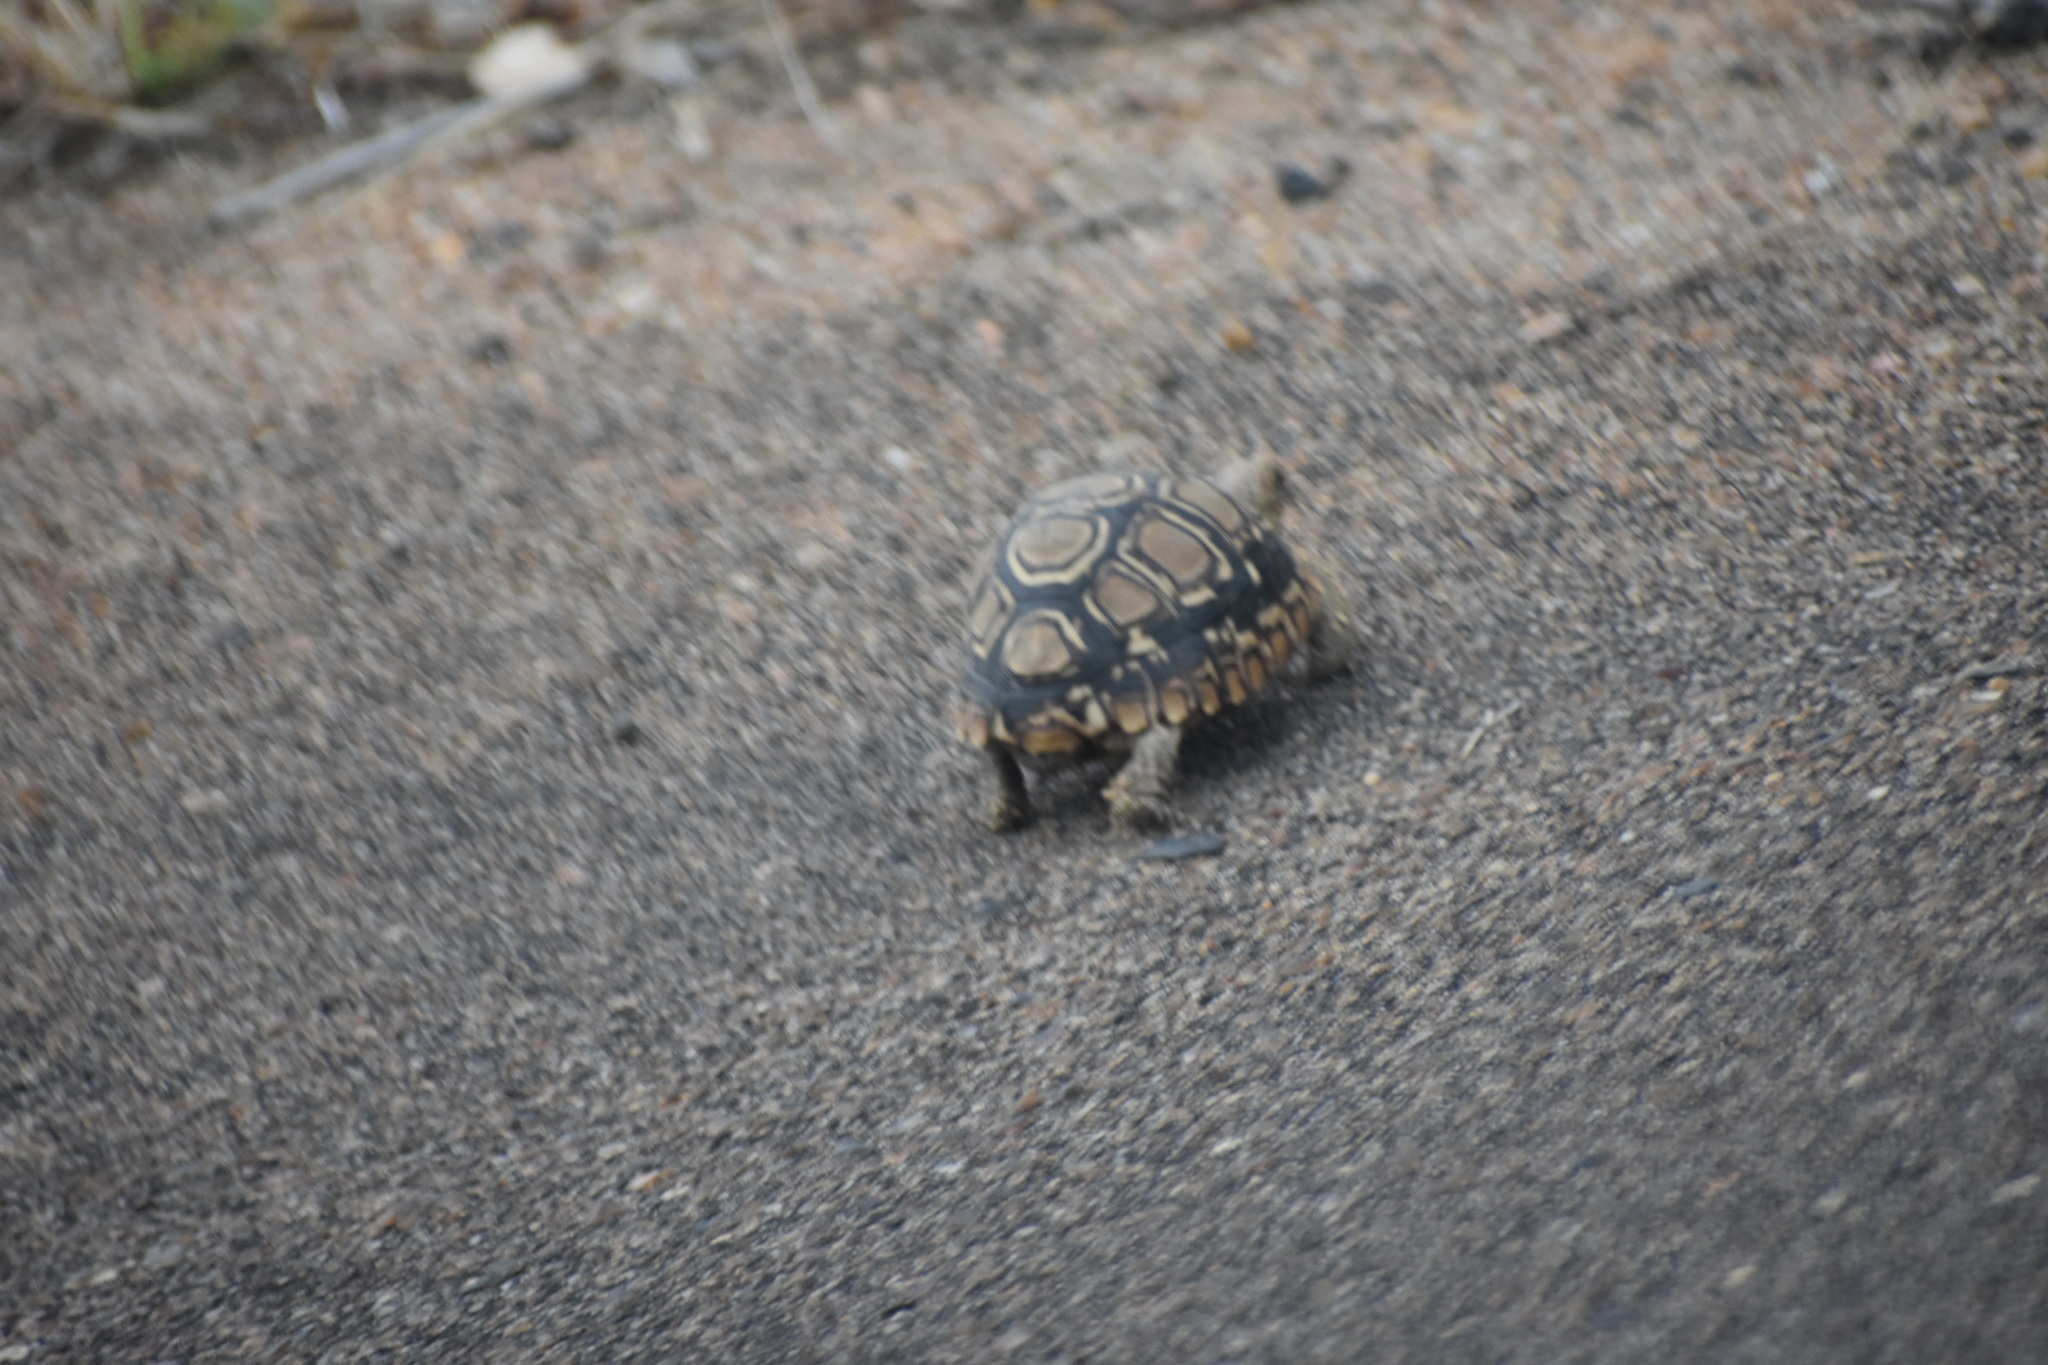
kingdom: Animalia
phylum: Chordata
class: Testudines
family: Testudinidae
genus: Stigmochelys
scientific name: Stigmochelys pardalis
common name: Leopard tortoise
